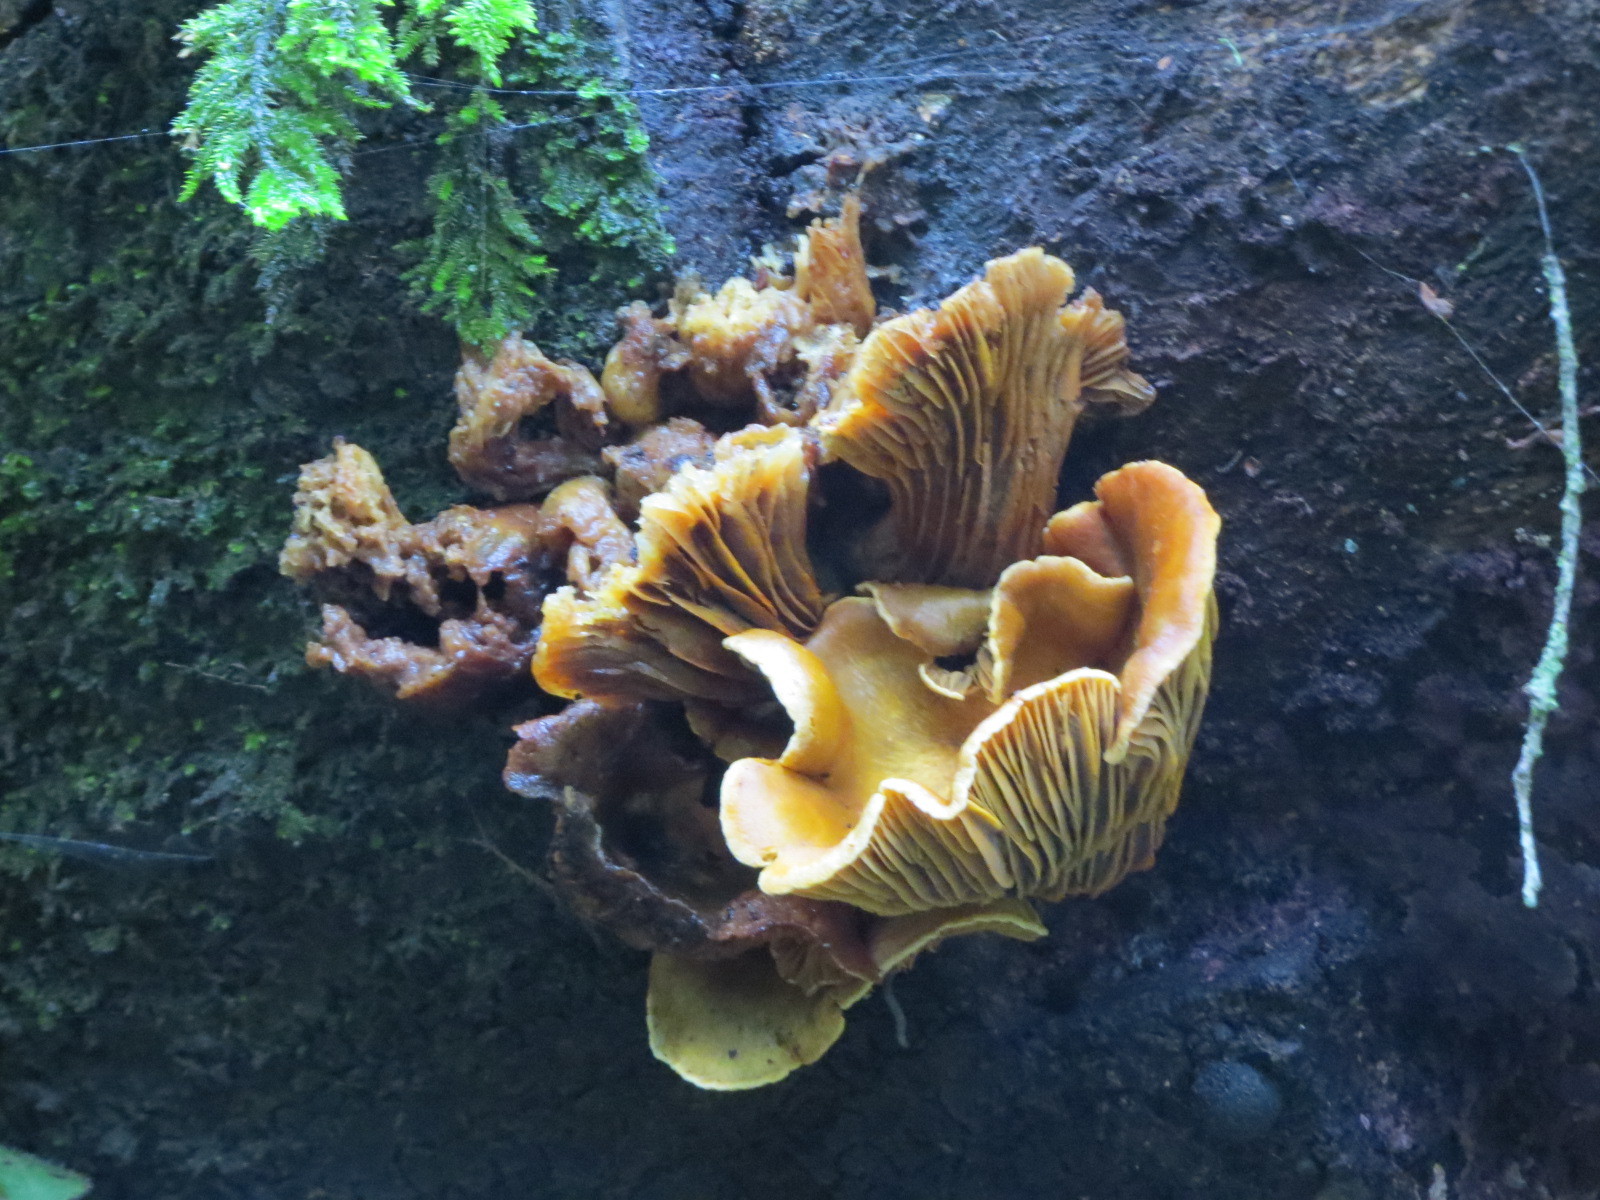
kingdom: Fungi
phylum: Basidiomycota
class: Agaricomycetes
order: Agaricales
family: Omphalotaceae
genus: Omphalotus
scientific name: Omphalotus olivascens
